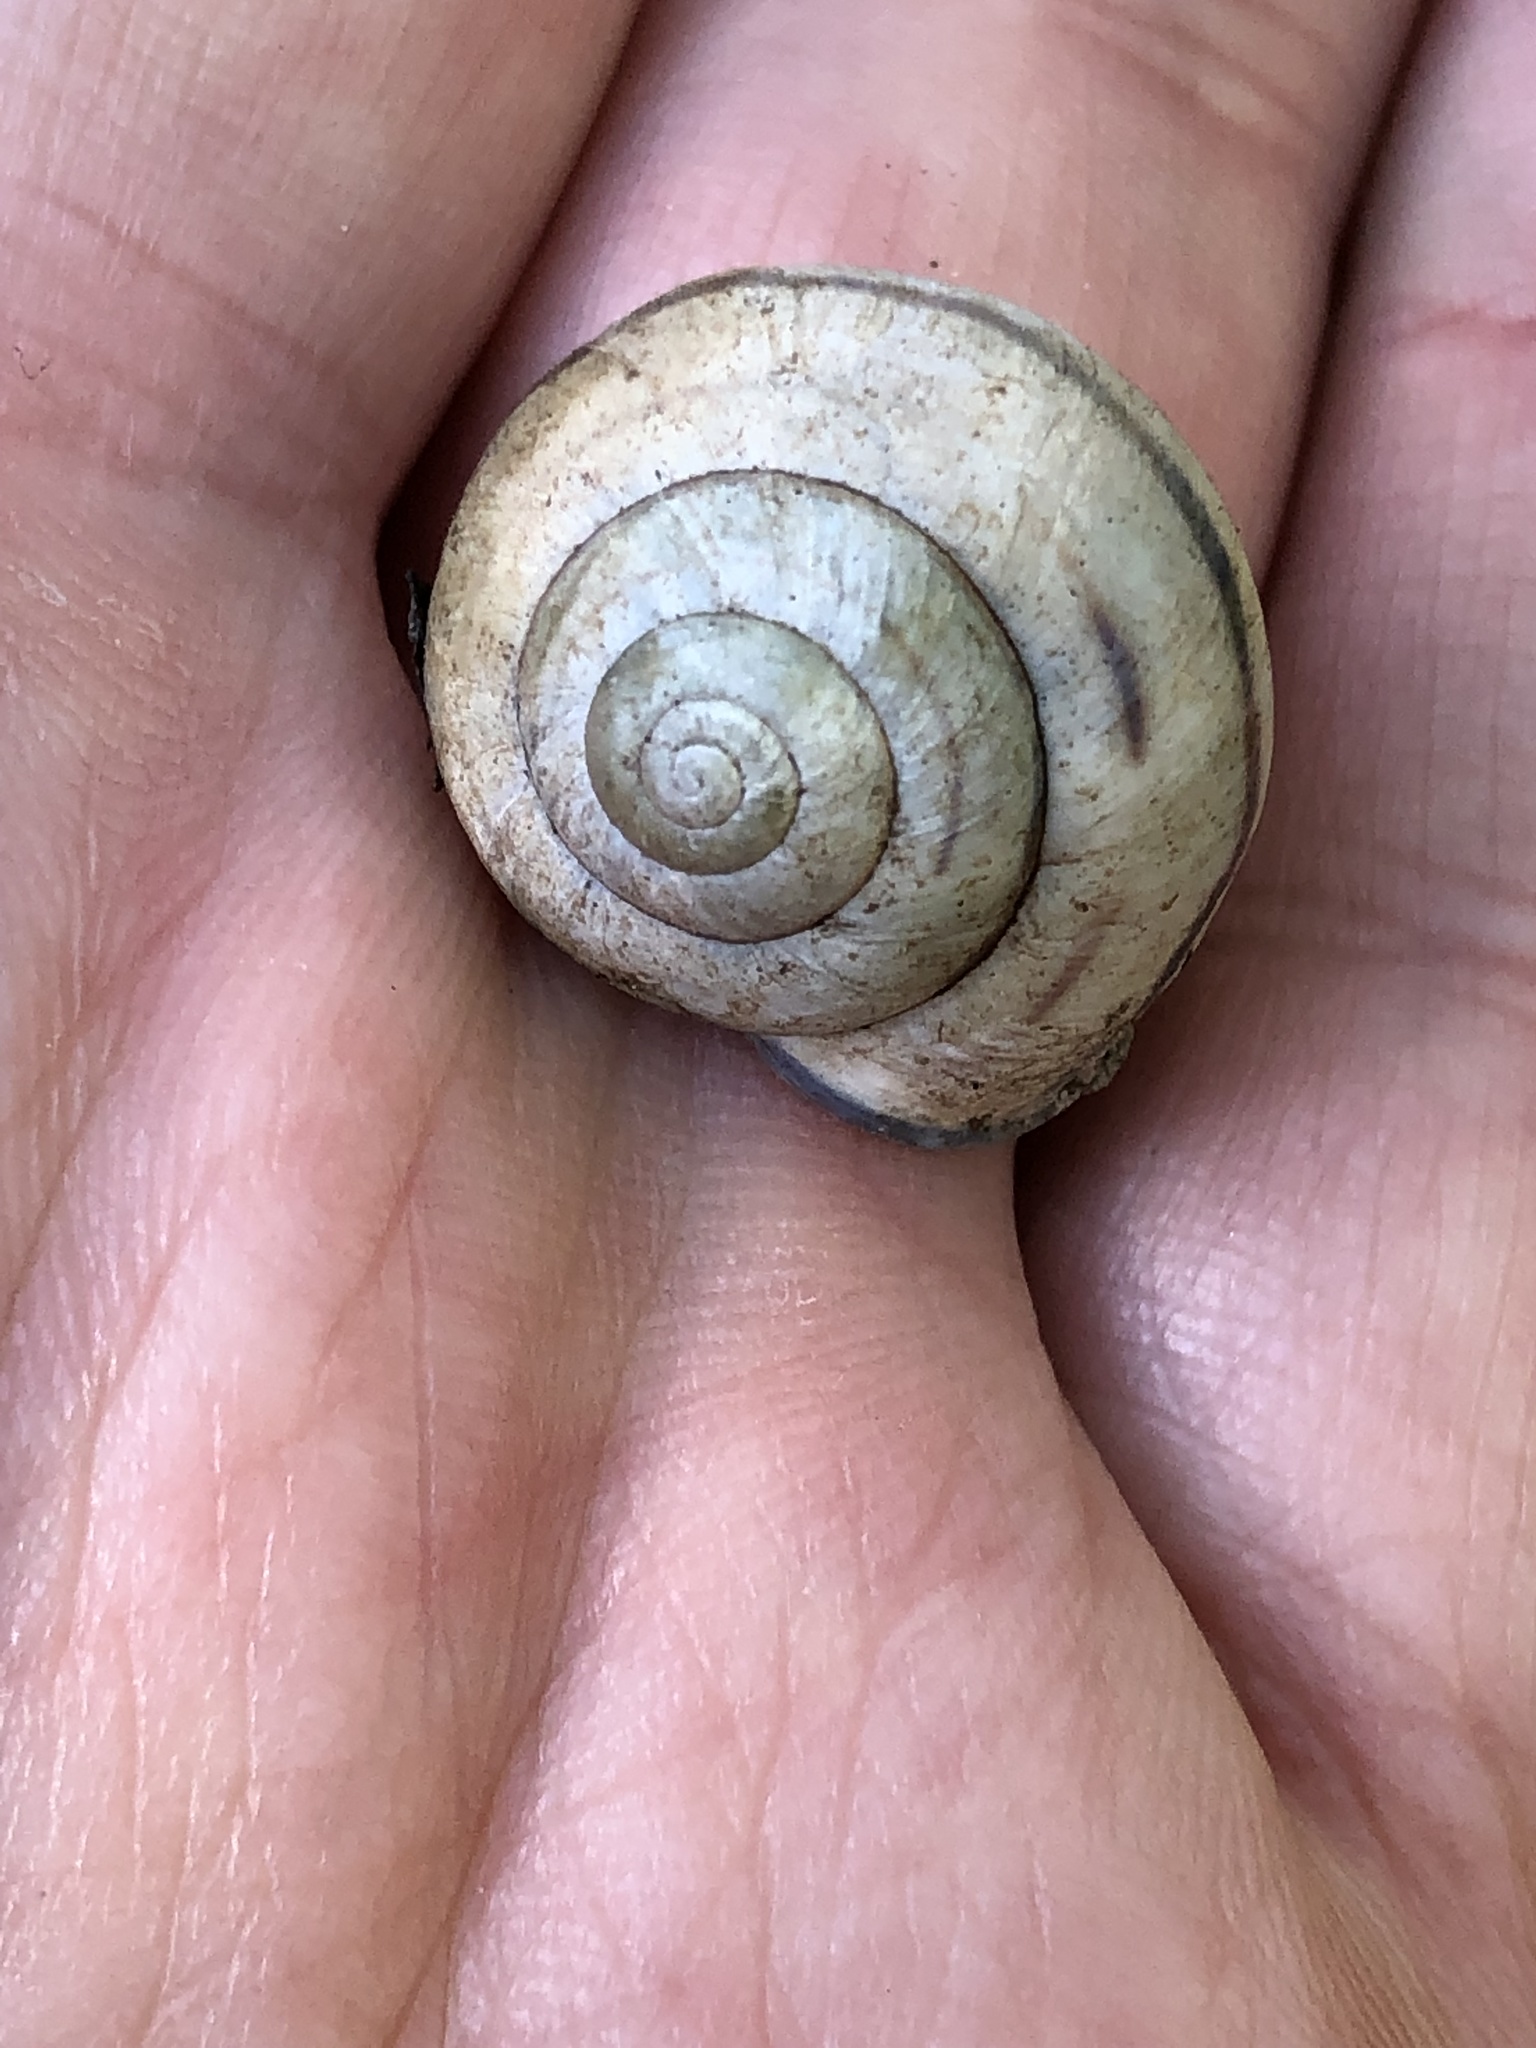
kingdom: Animalia
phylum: Mollusca
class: Gastropoda
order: Stylommatophora
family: Helicidae
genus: Cepaea
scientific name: Cepaea nemoralis
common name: Grovesnail
